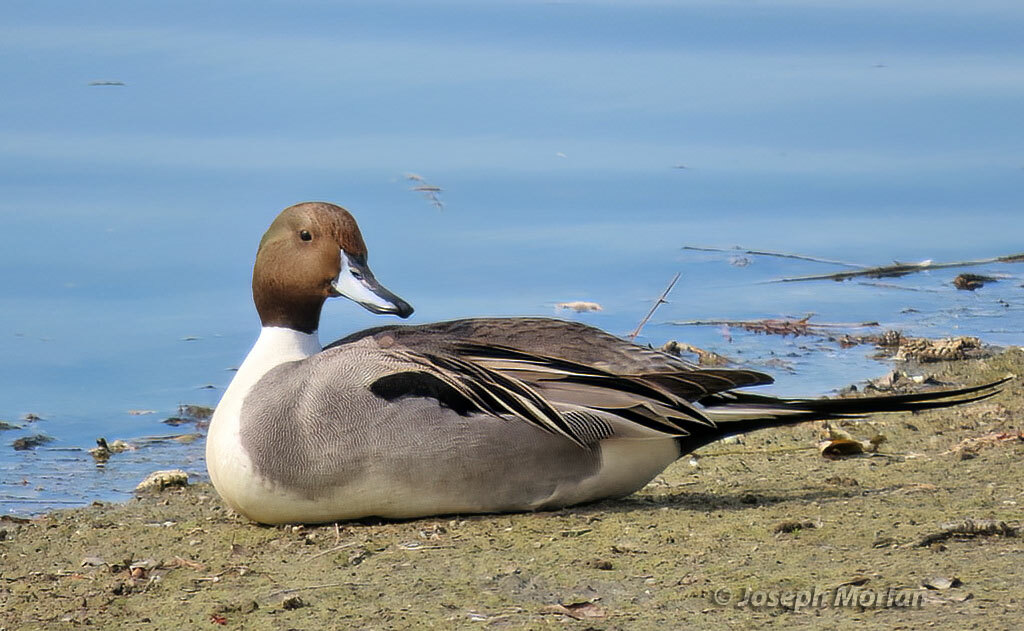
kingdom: Animalia
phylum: Chordata
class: Aves
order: Anseriformes
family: Anatidae
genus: Anas
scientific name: Anas acuta
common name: Northern pintail
